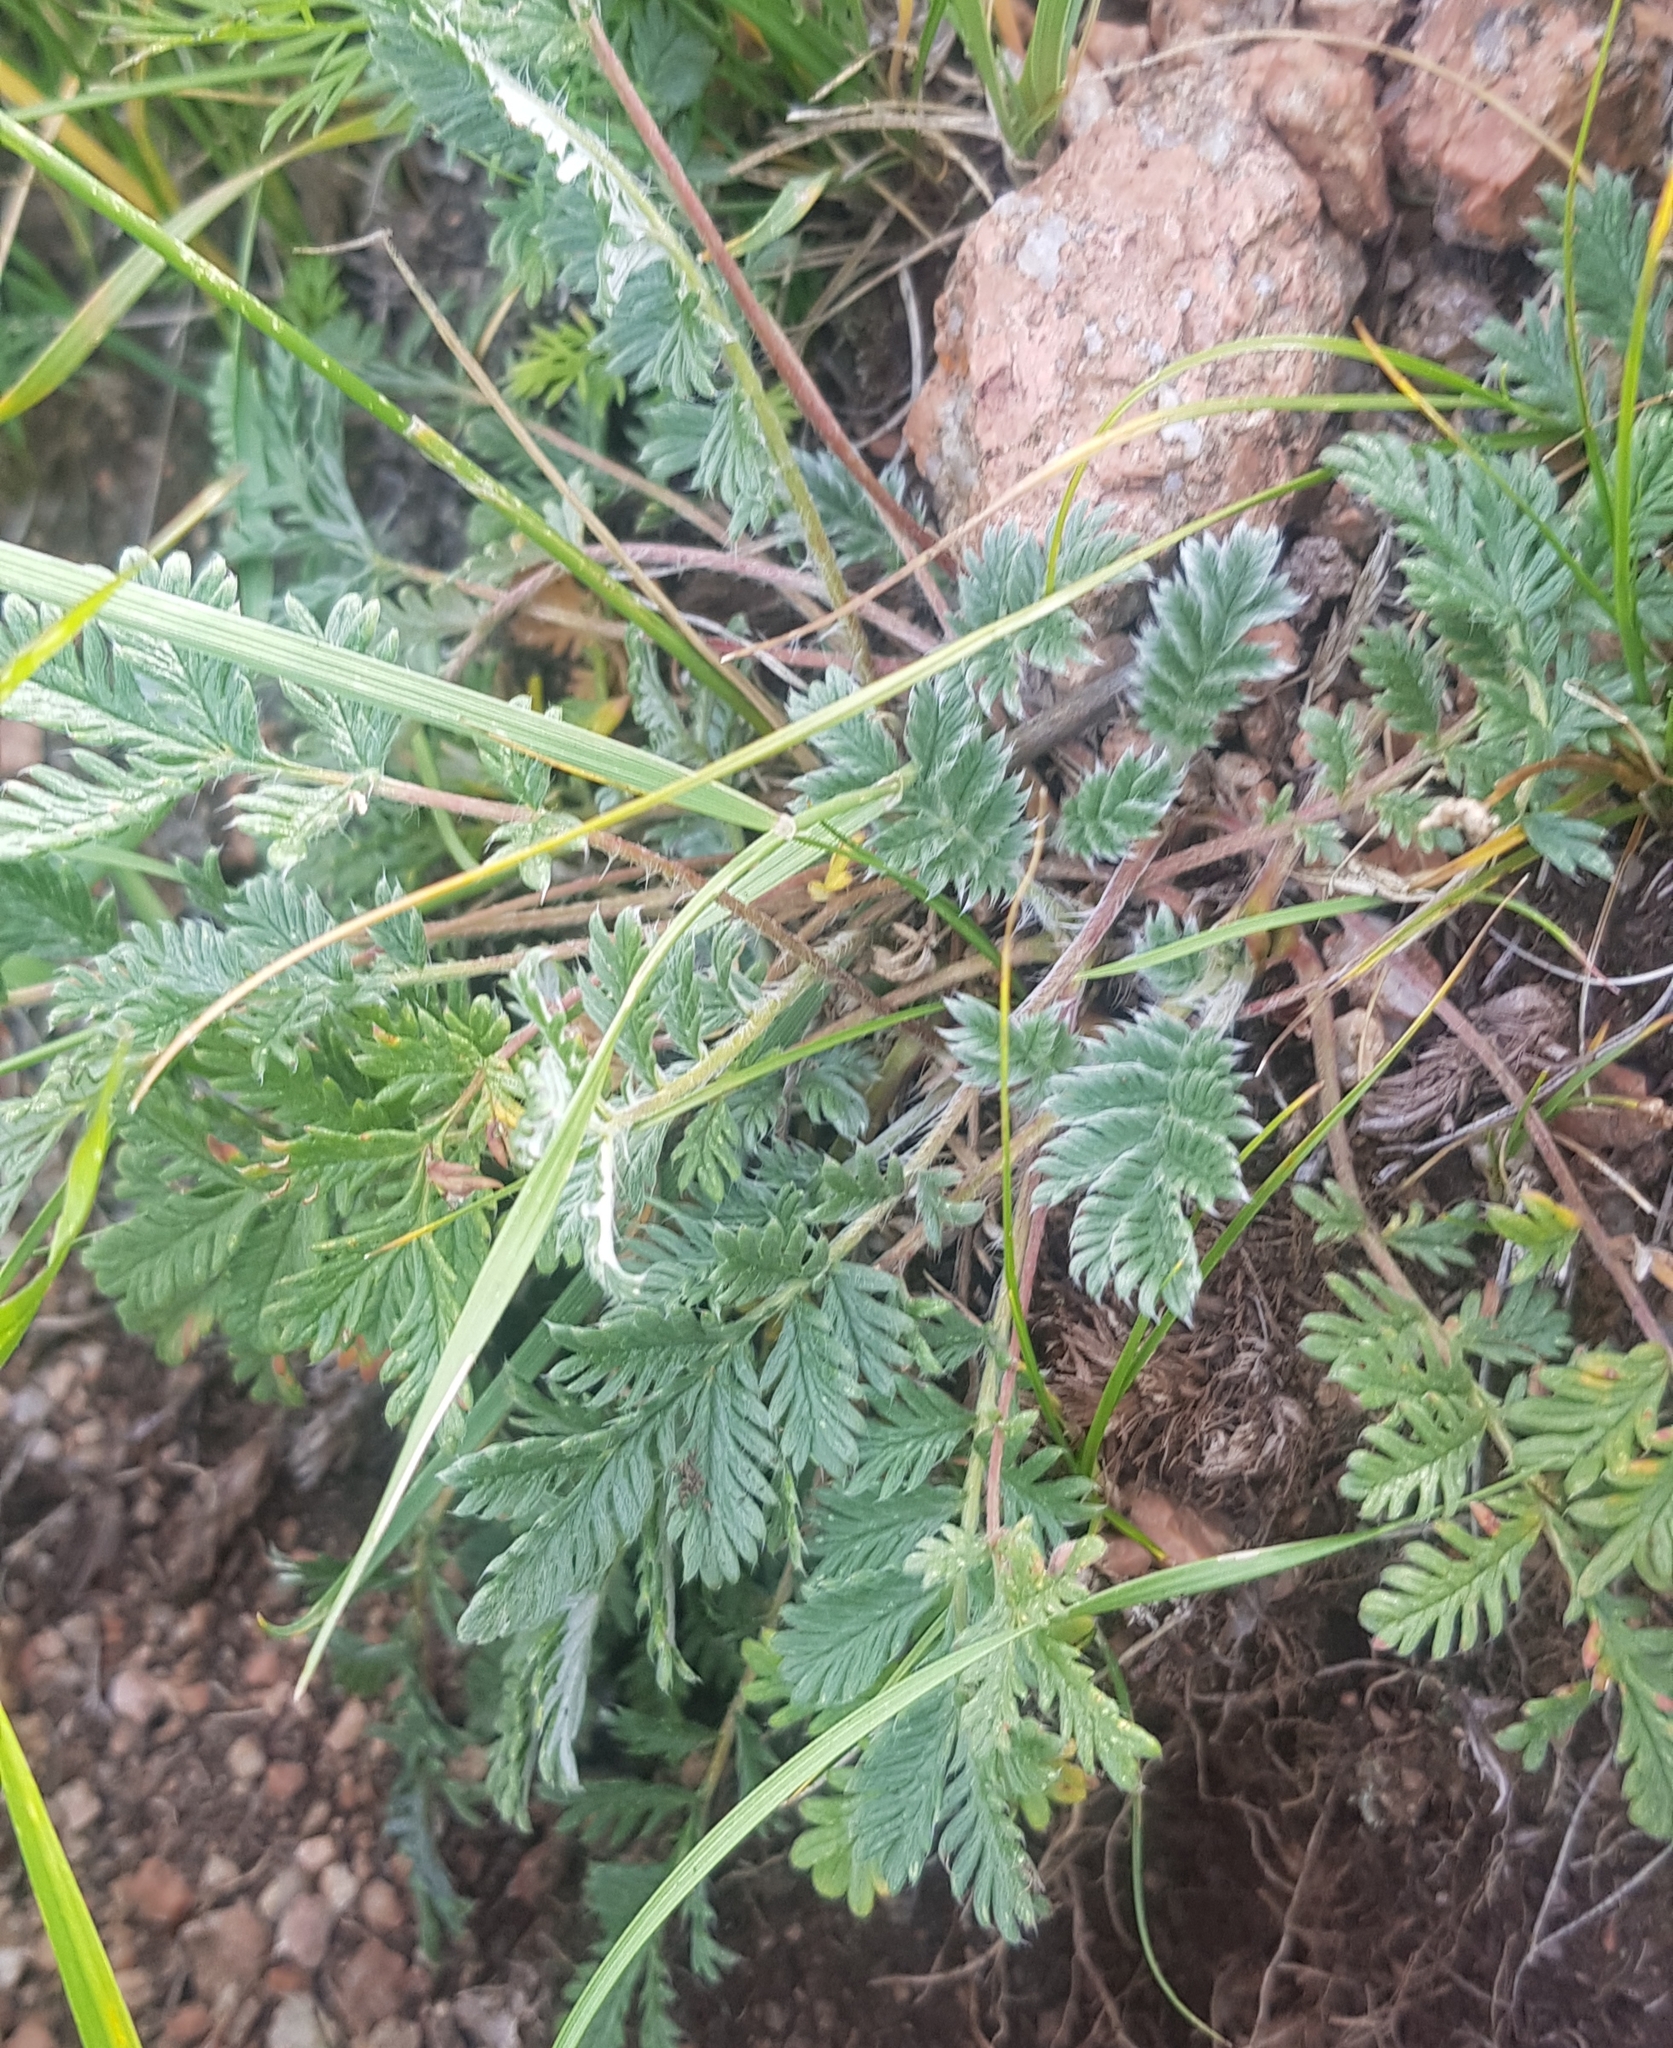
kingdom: Plantae
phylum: Tracheophyta
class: Magnoliopsida
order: Rosales
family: Rosaceae
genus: Potentilla
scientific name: Potentilla sericea
